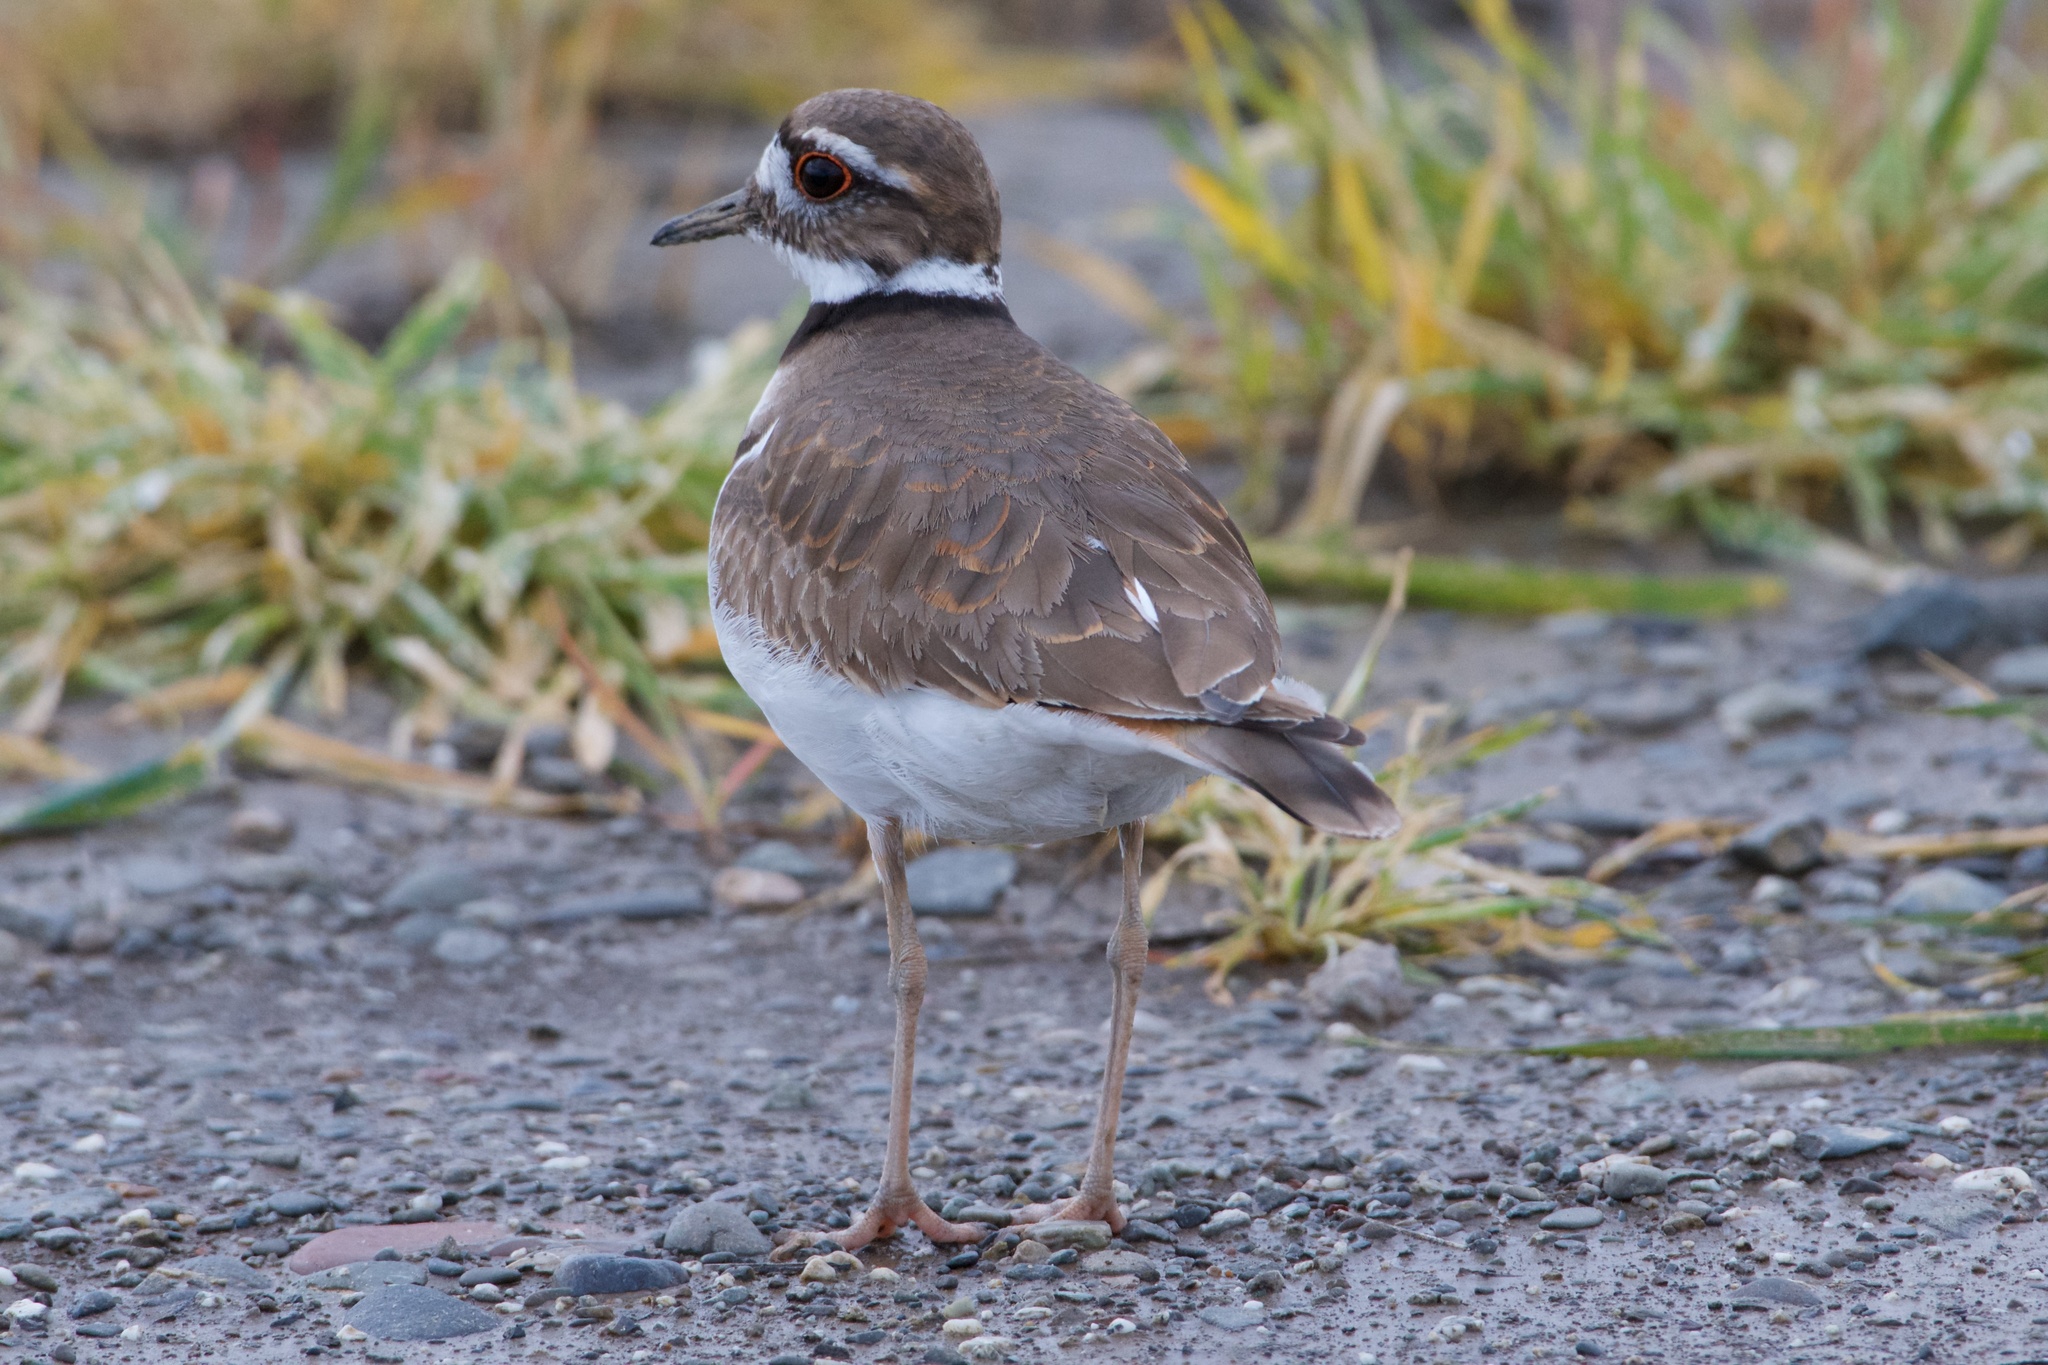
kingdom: Animalia
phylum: Chordata
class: Aves
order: Charadriiformes
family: Charadriidae
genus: Charadrius
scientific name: Charadrius vociferus
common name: Killdeer
